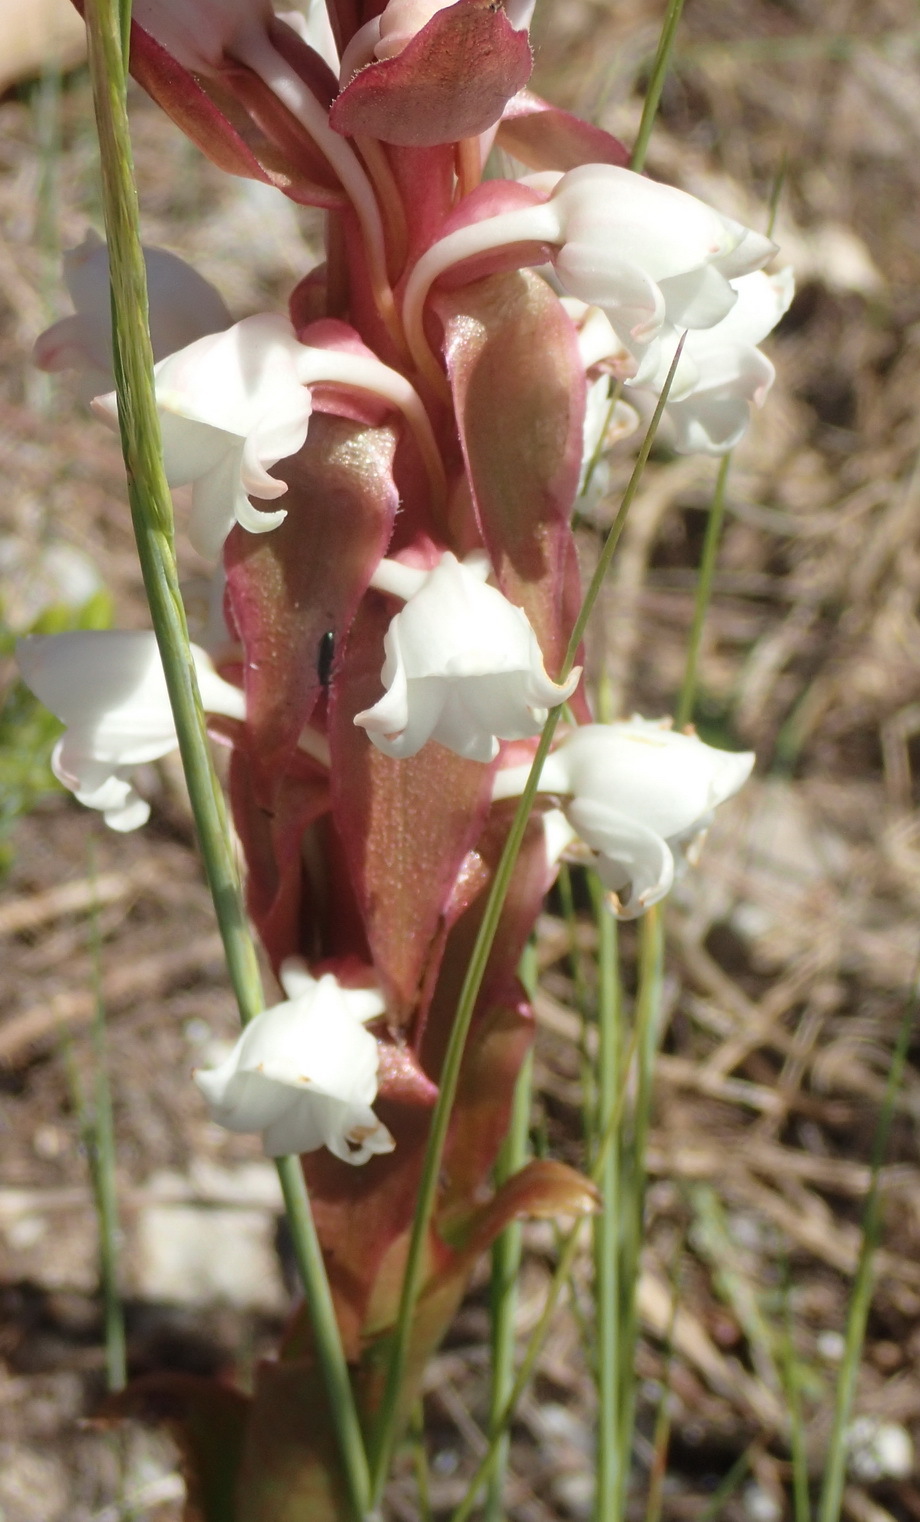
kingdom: Plantae
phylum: Tracheophyta
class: Liliopsida
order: Asparagales
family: Orchidaceae
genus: Satyrium
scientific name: Satyrium acuminatum
